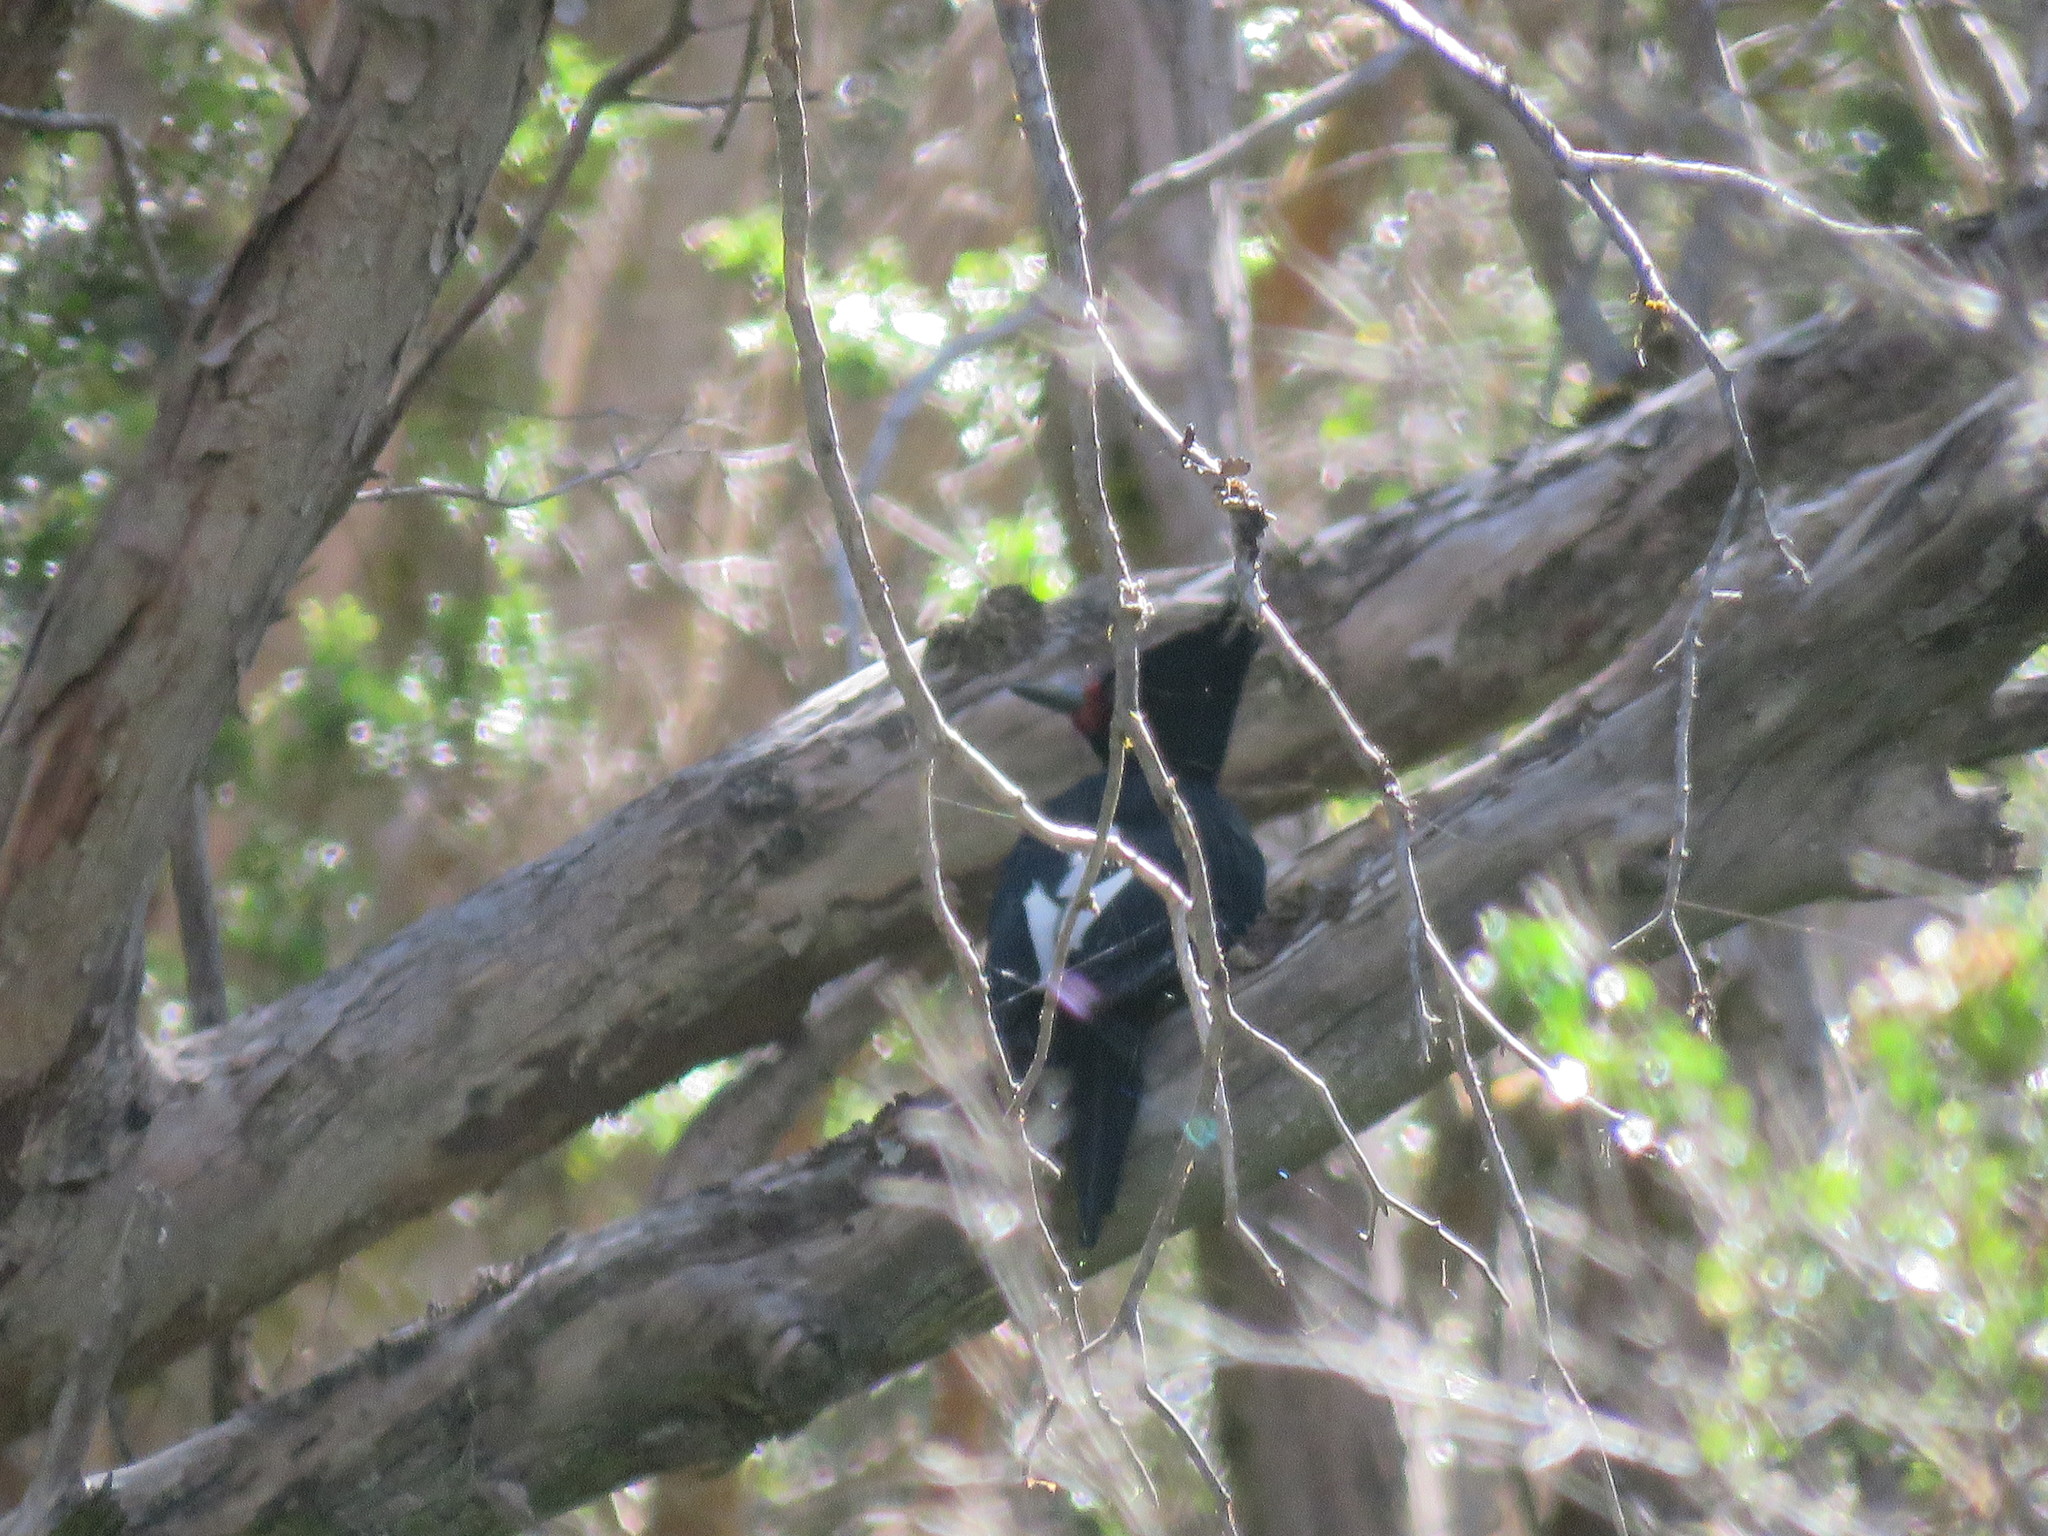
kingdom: Animalia
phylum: Chordata
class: Aves
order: Piciformes
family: Picidae
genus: Campephilus
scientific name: Campephilus magellanicus
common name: Magellanic woodpecker
